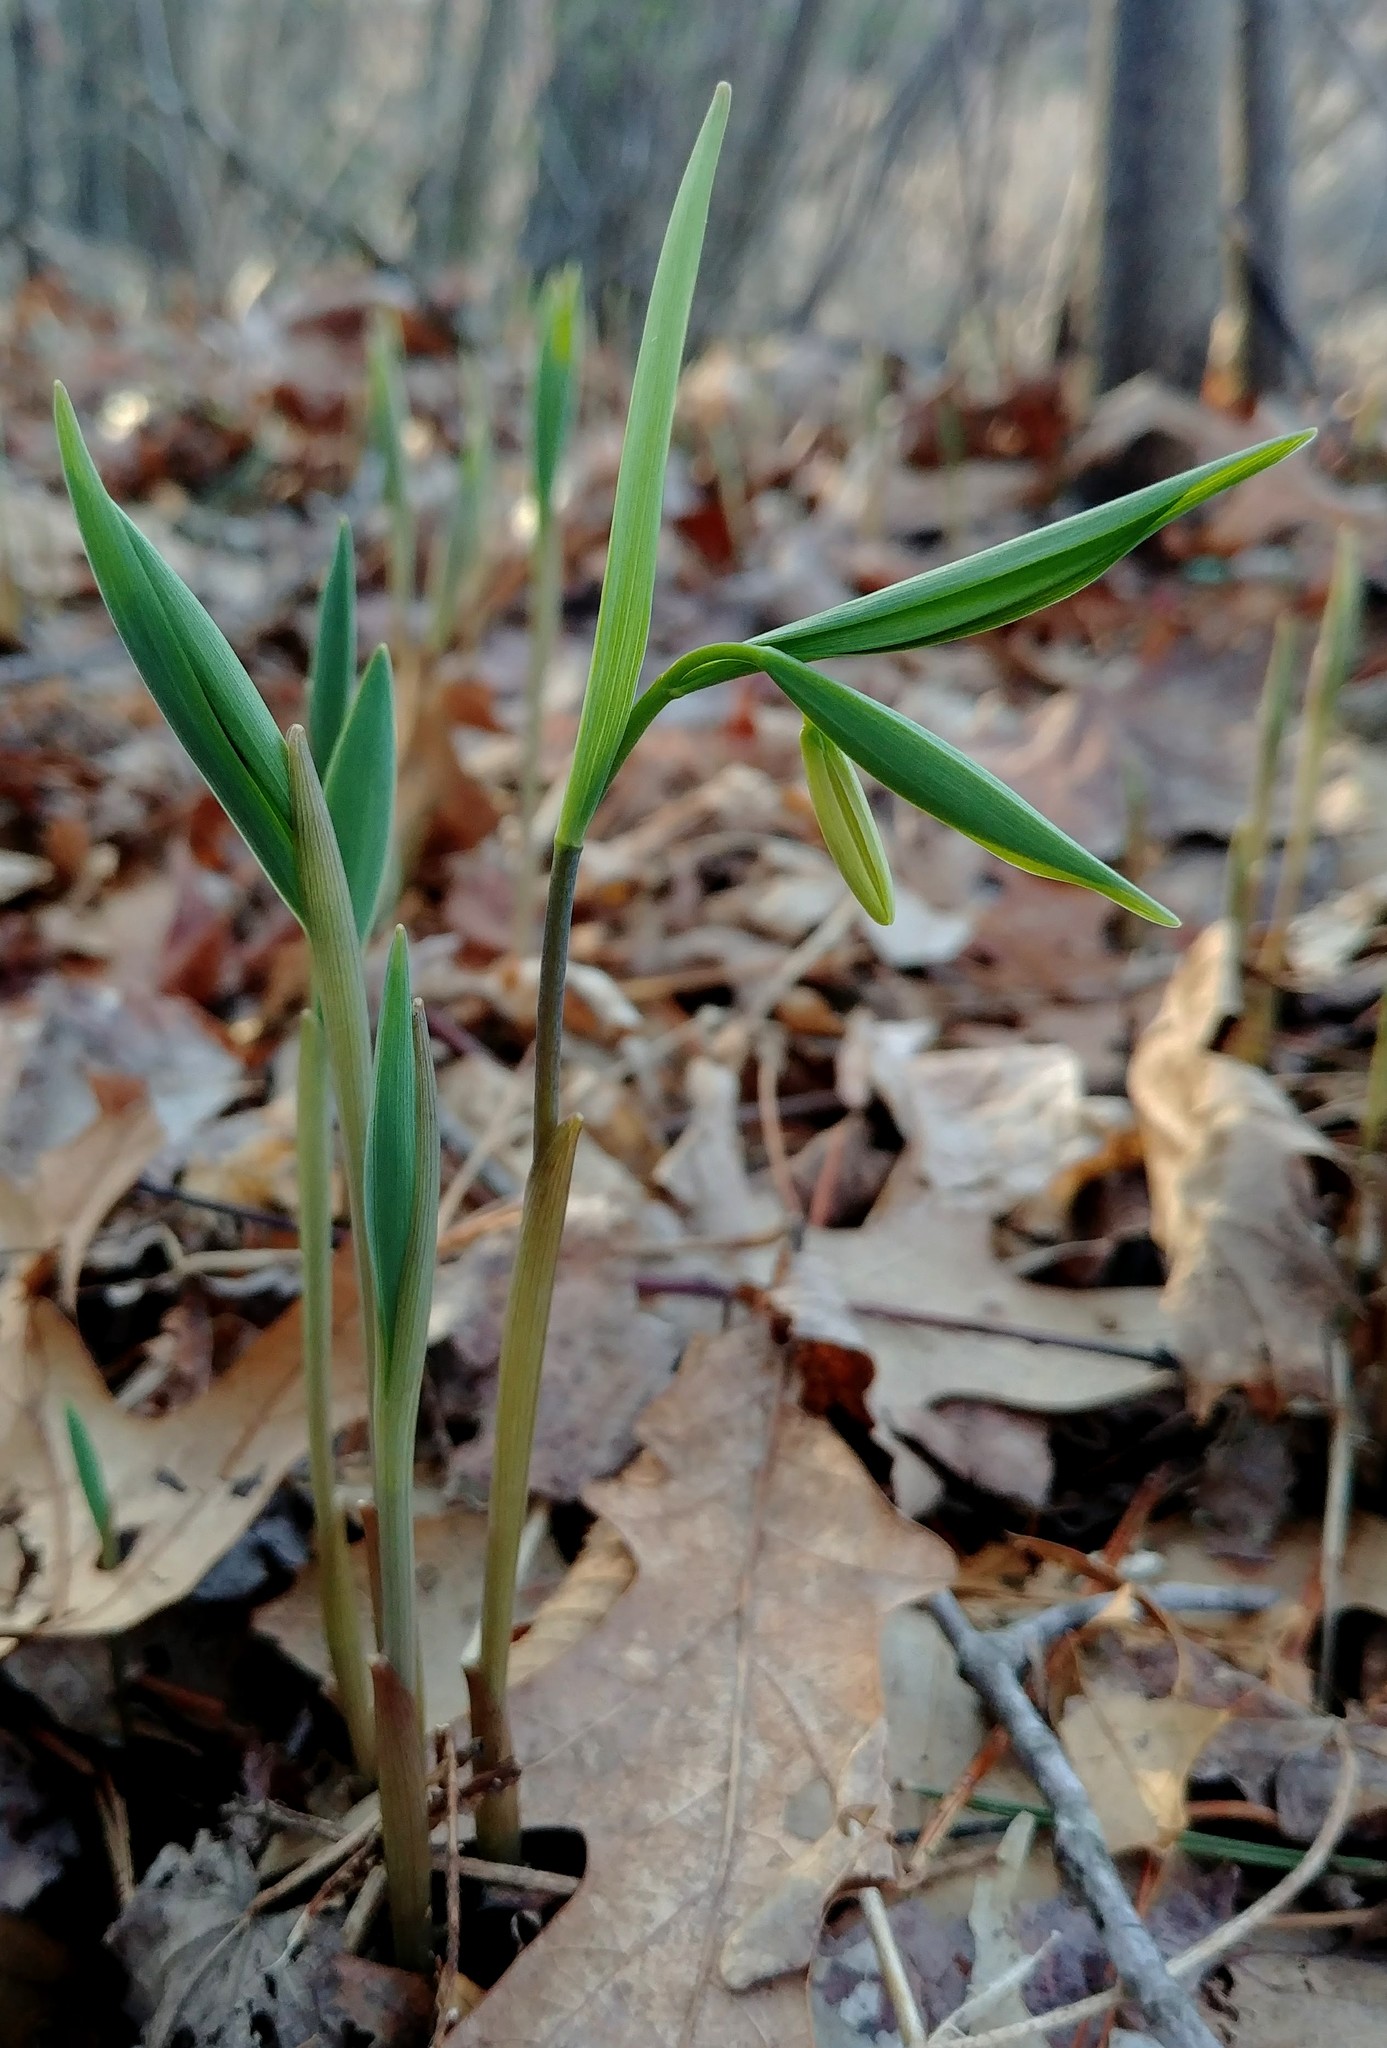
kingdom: Plantae
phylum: Tracheophyta
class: Liliopsida
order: Liliales
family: Colchicaceae
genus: Uvularia
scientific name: Uvularia sessilifolia
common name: Straw-lily
